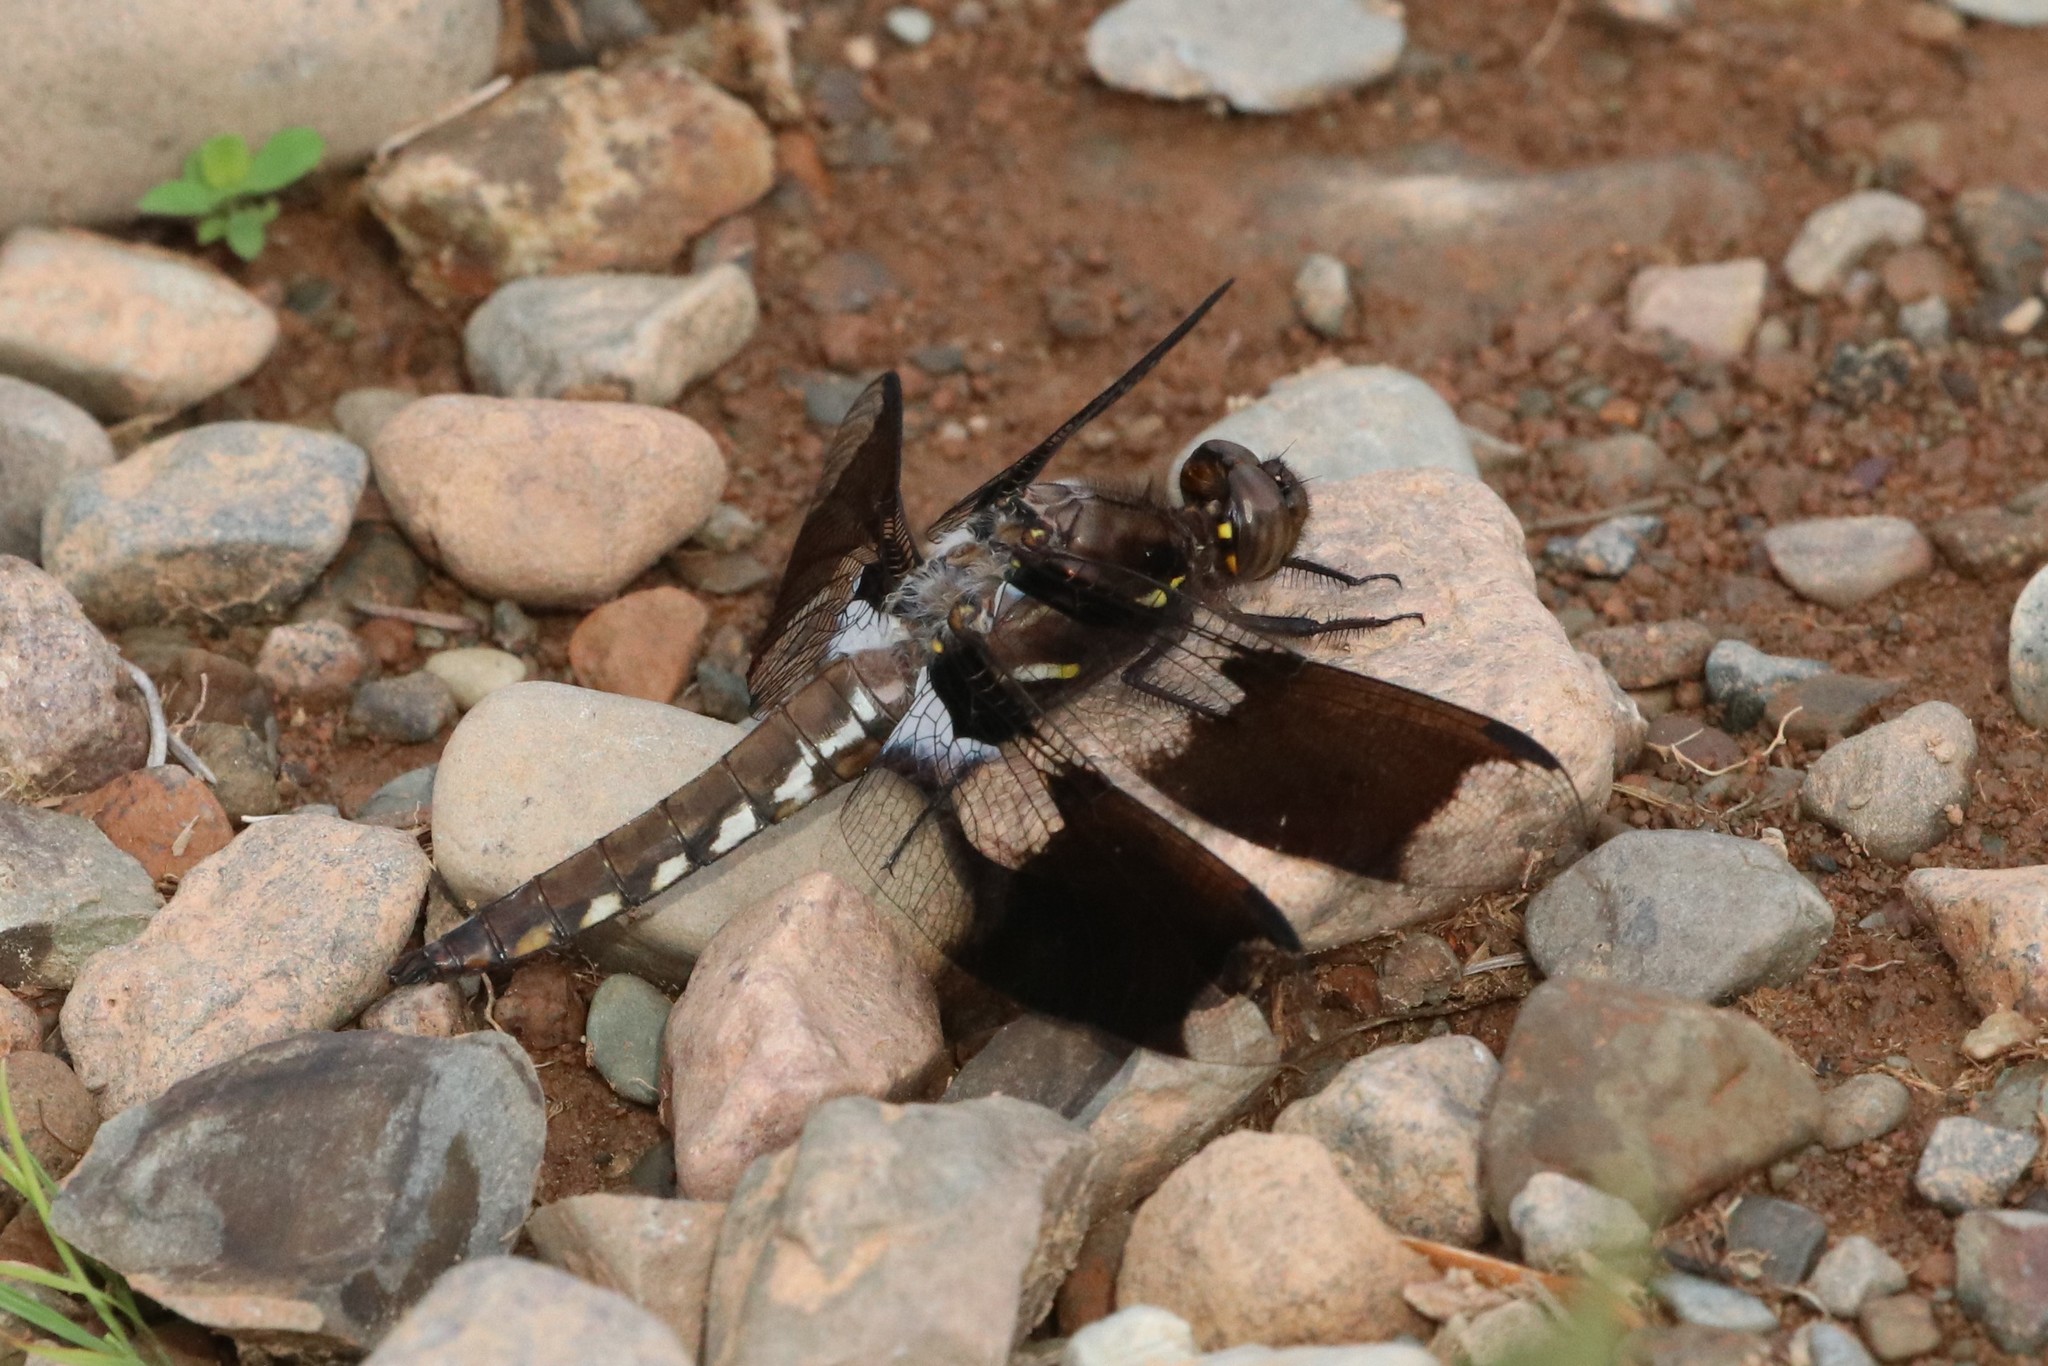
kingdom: Animalia
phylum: Arthropoda
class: Insecta
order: Odonata
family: Libellulidae
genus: Plathemis
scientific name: Plathemis lydia
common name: Common whitetail
